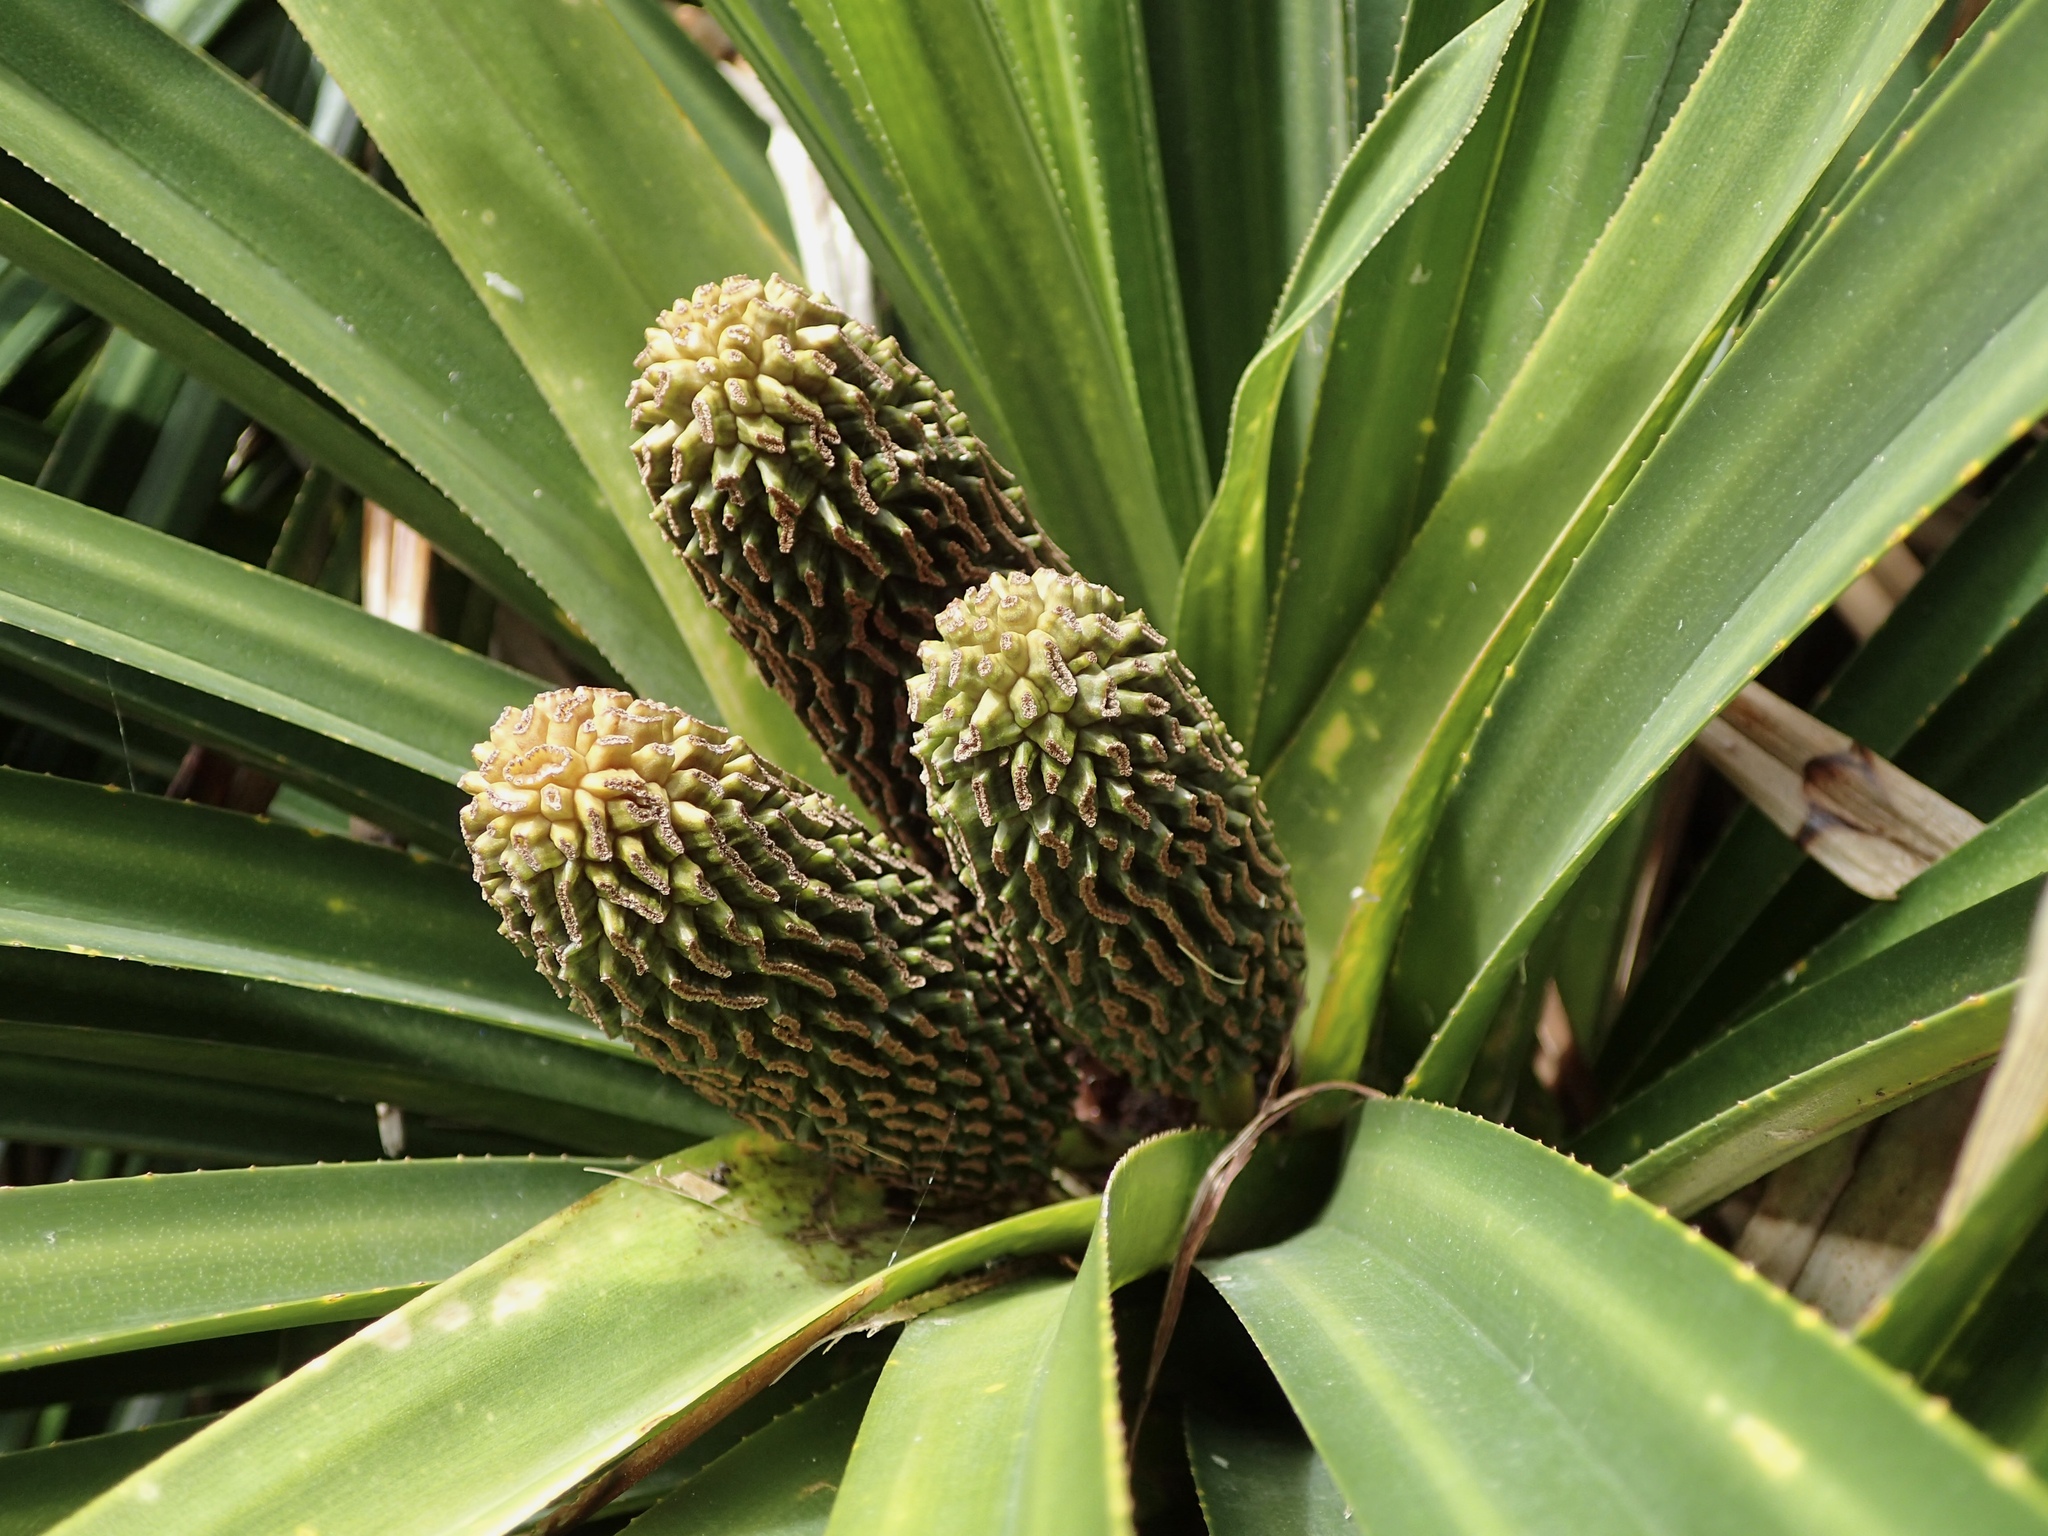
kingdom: Plantae
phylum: Tracheophyta
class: Liliopsida
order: Pandanales
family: Pandanaceae
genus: Freycinetia
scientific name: Freycinetia banksii
